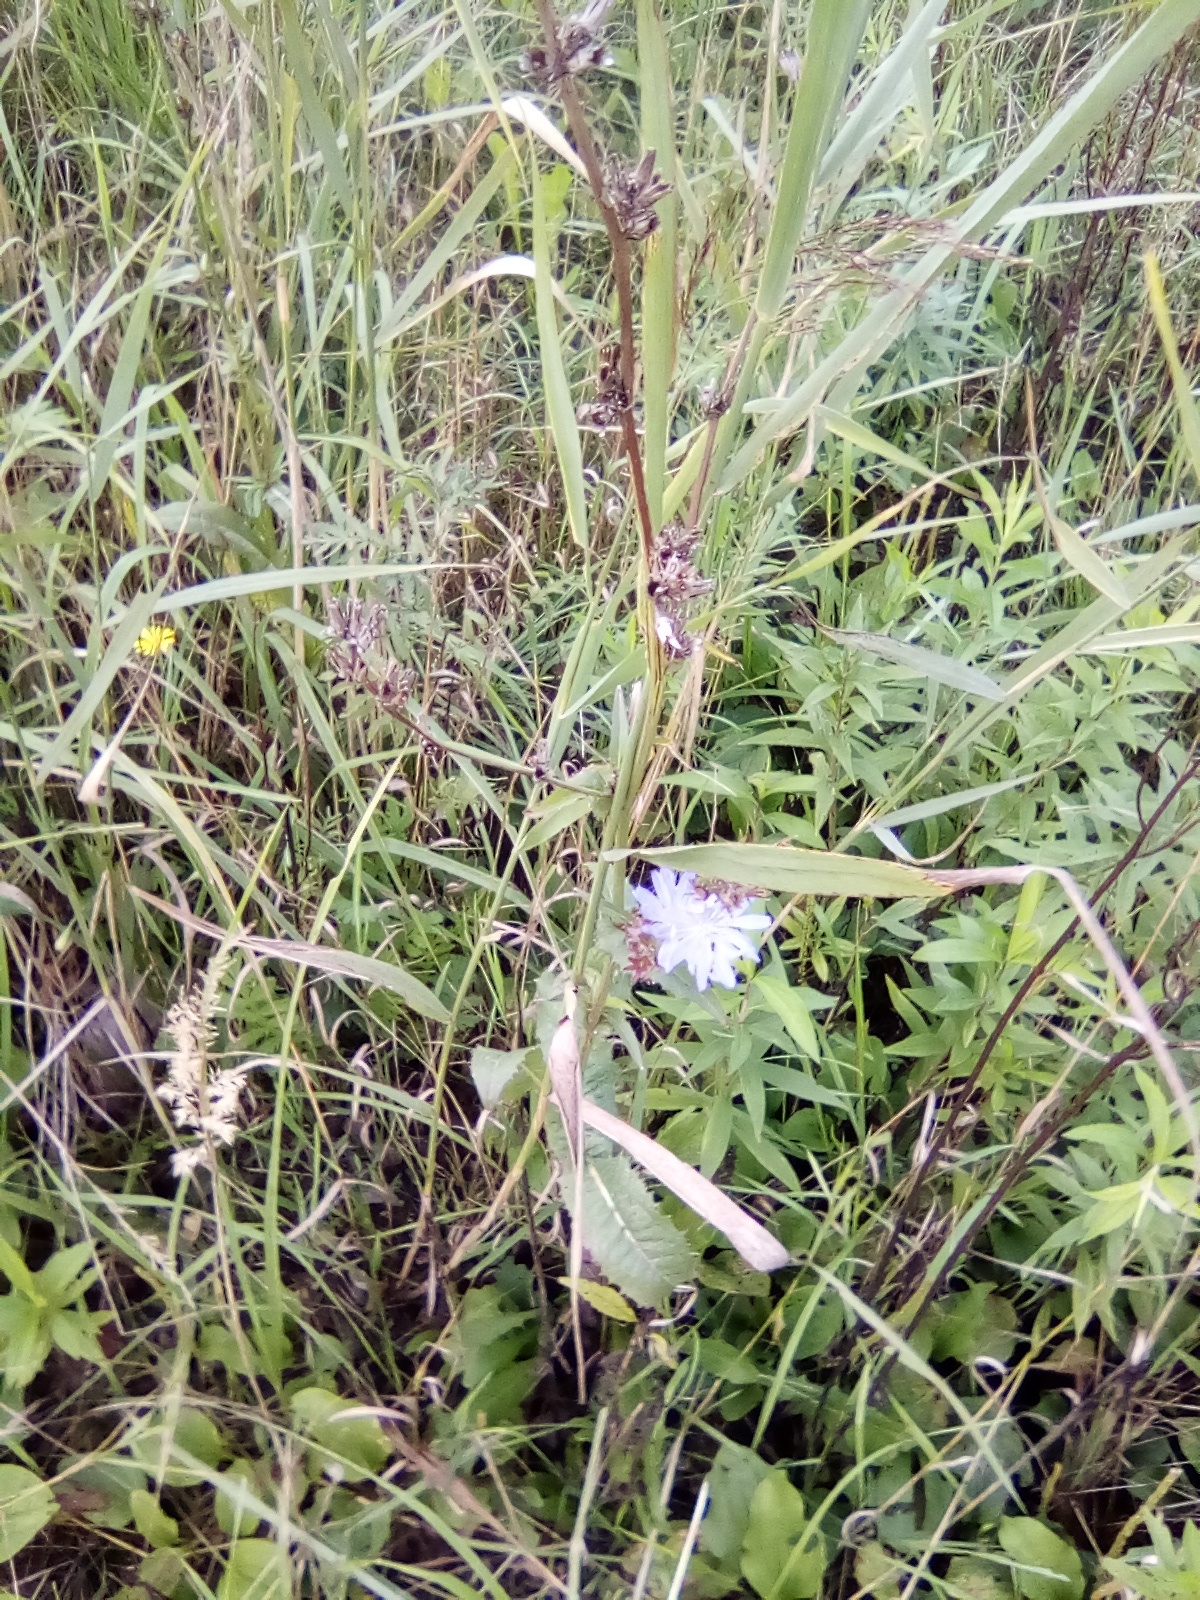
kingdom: Plantae
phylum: Tracheophyta
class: Magnoliopsida
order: Asterales
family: Asteraceae
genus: Cichorium
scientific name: Cichorium intybus
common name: Chicory
